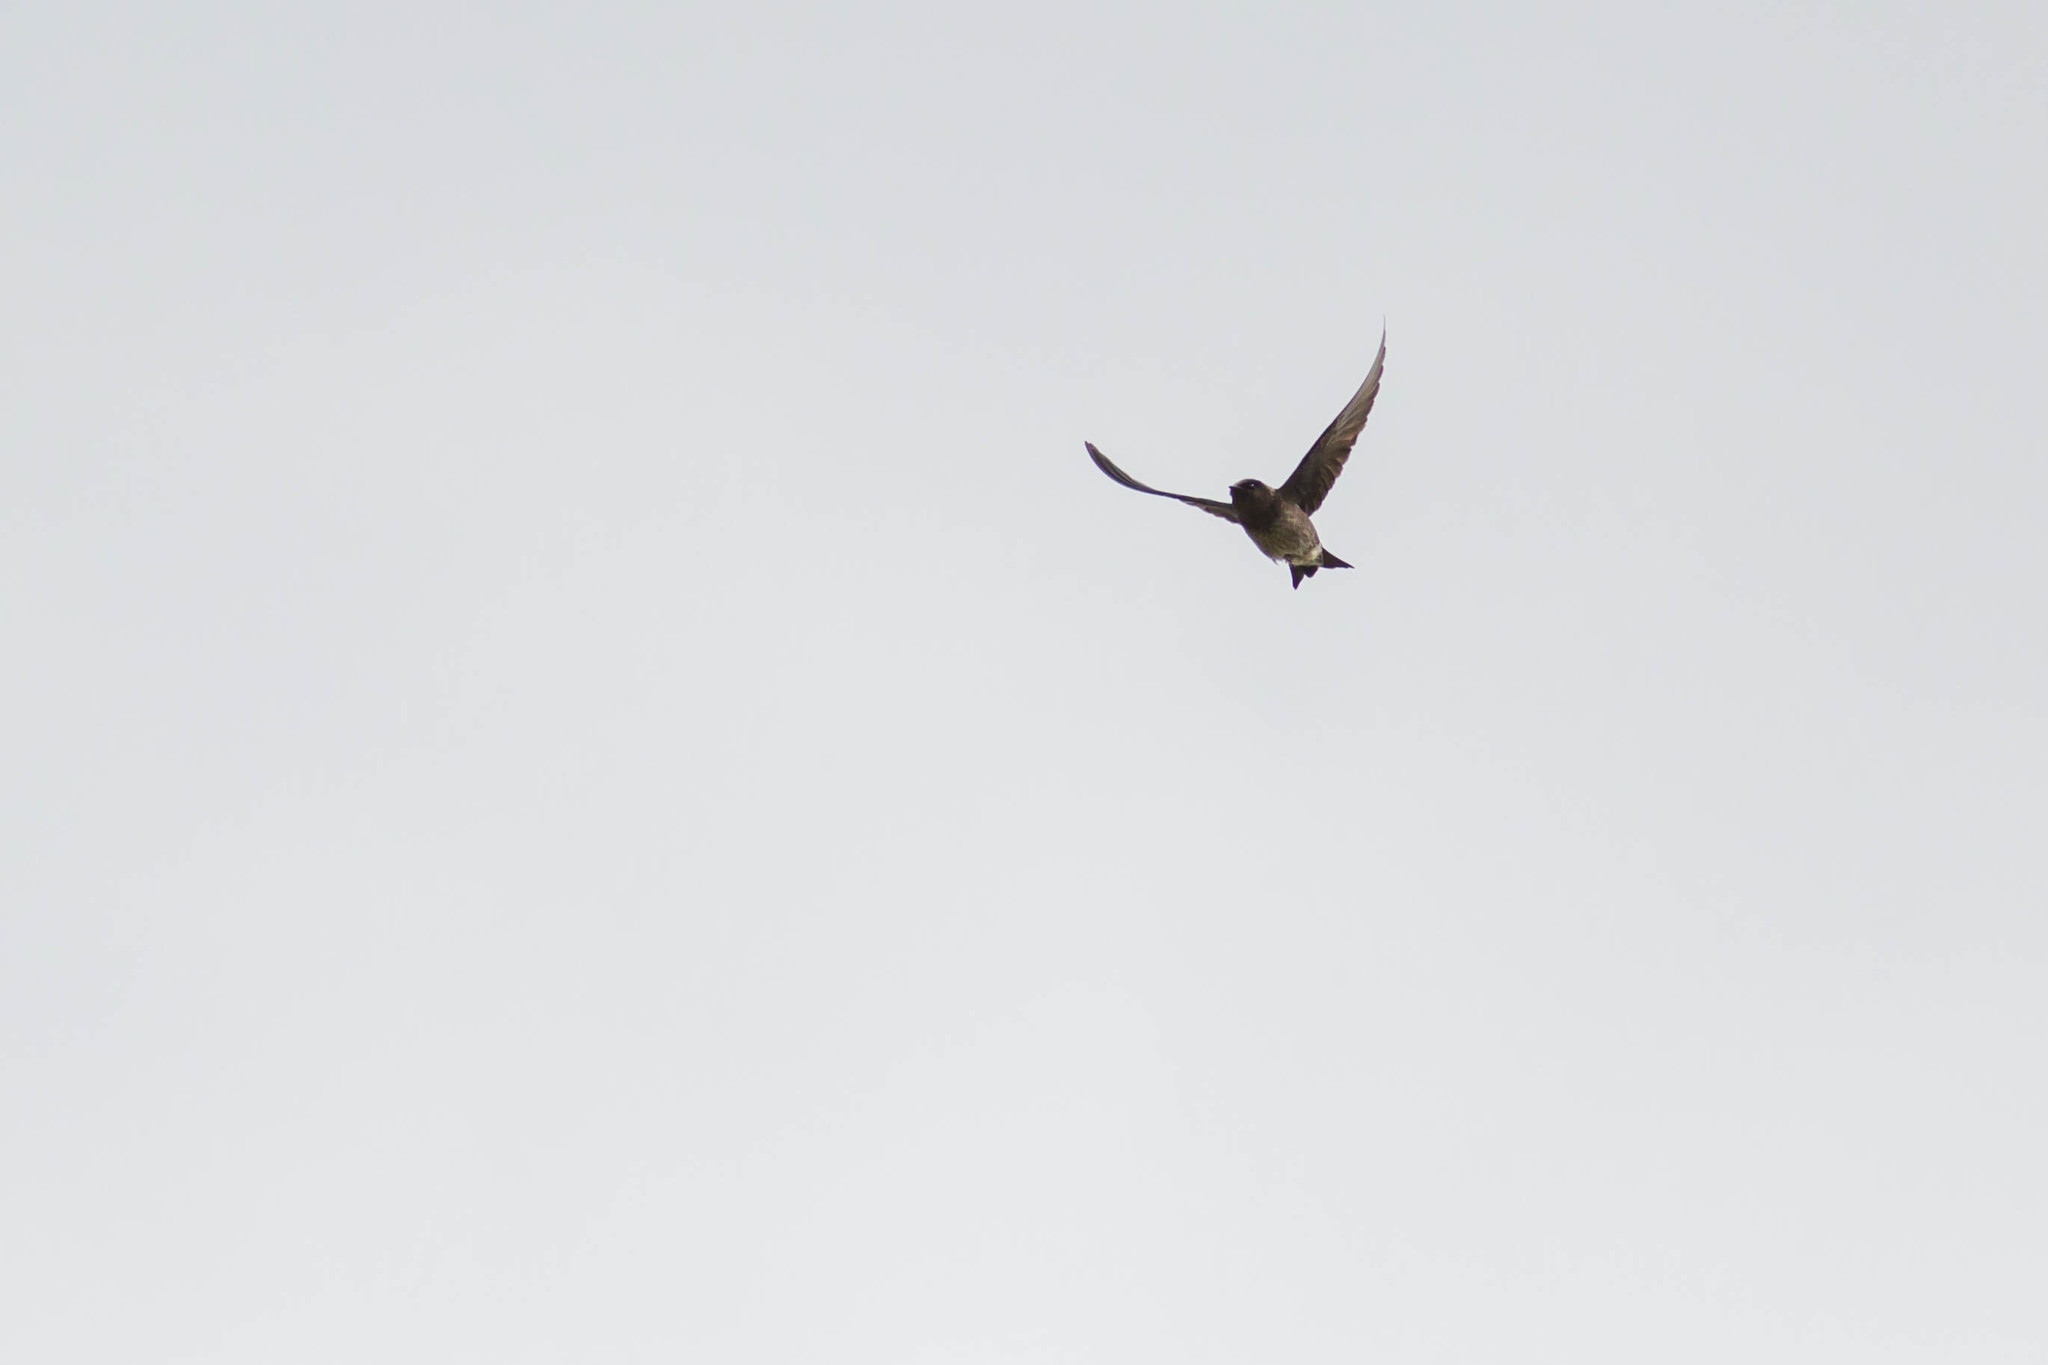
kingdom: Animalia
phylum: Chordata
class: Aves
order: Passeriformes
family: Hirundinidae
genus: Progne
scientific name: Progne subis
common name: Purple martin
